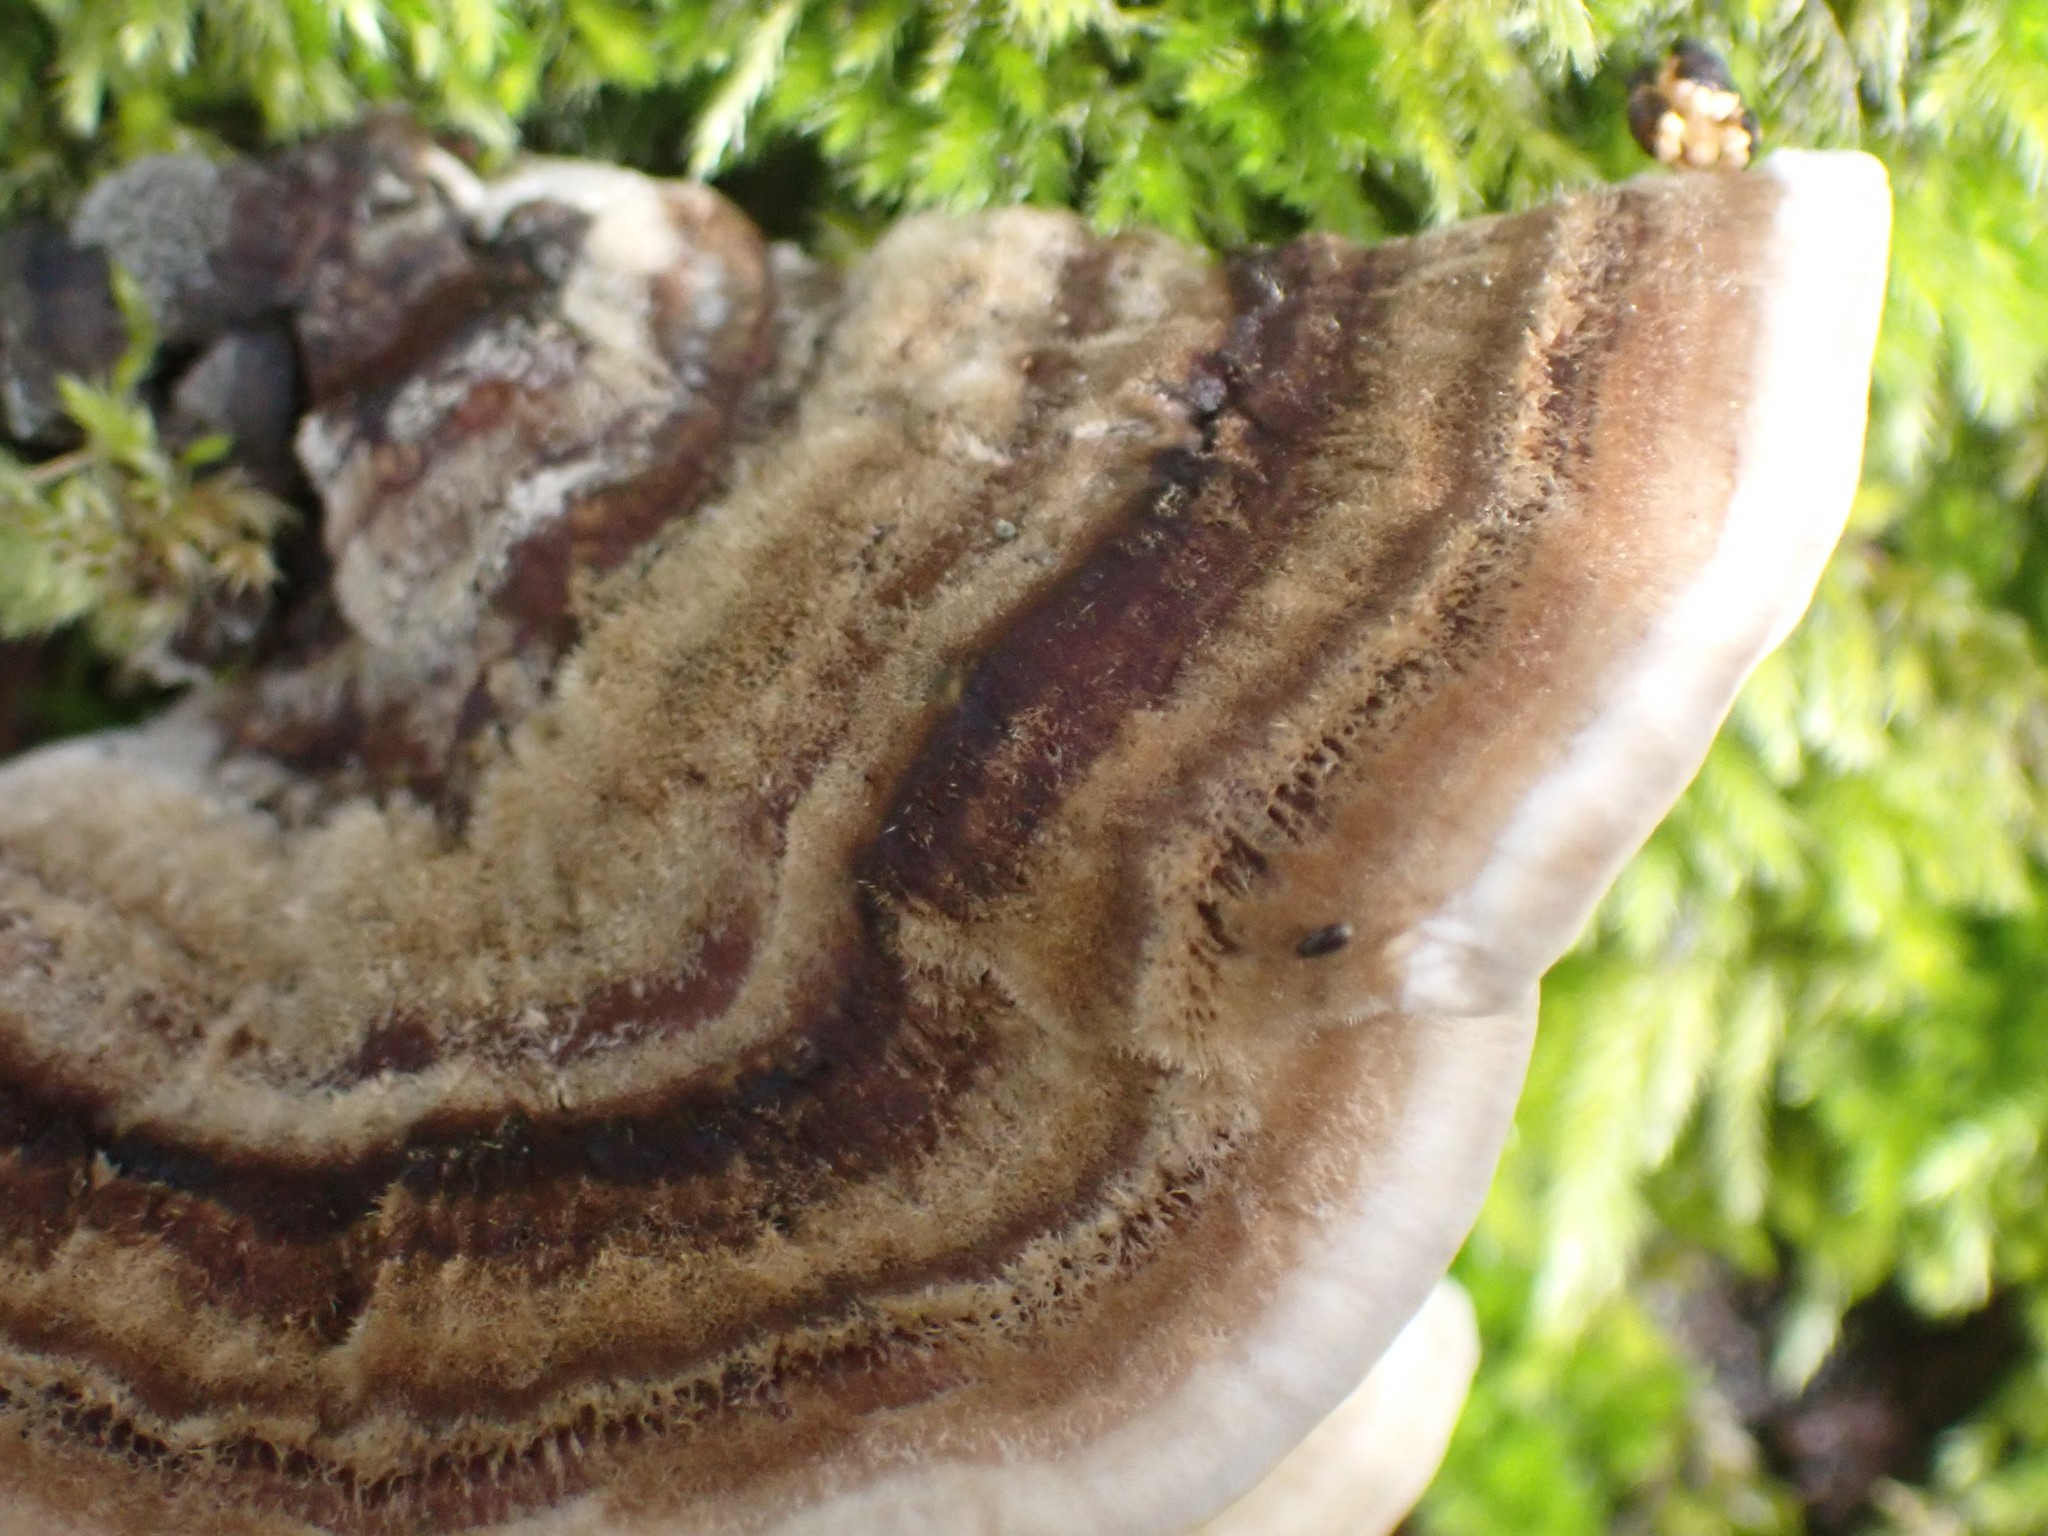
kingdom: Fungi
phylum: Basidiomycota
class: Agaricomycetes
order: Polyporales
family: Polyporaceae
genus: Trametes
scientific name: Trametes versicolor
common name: Turkeytail
